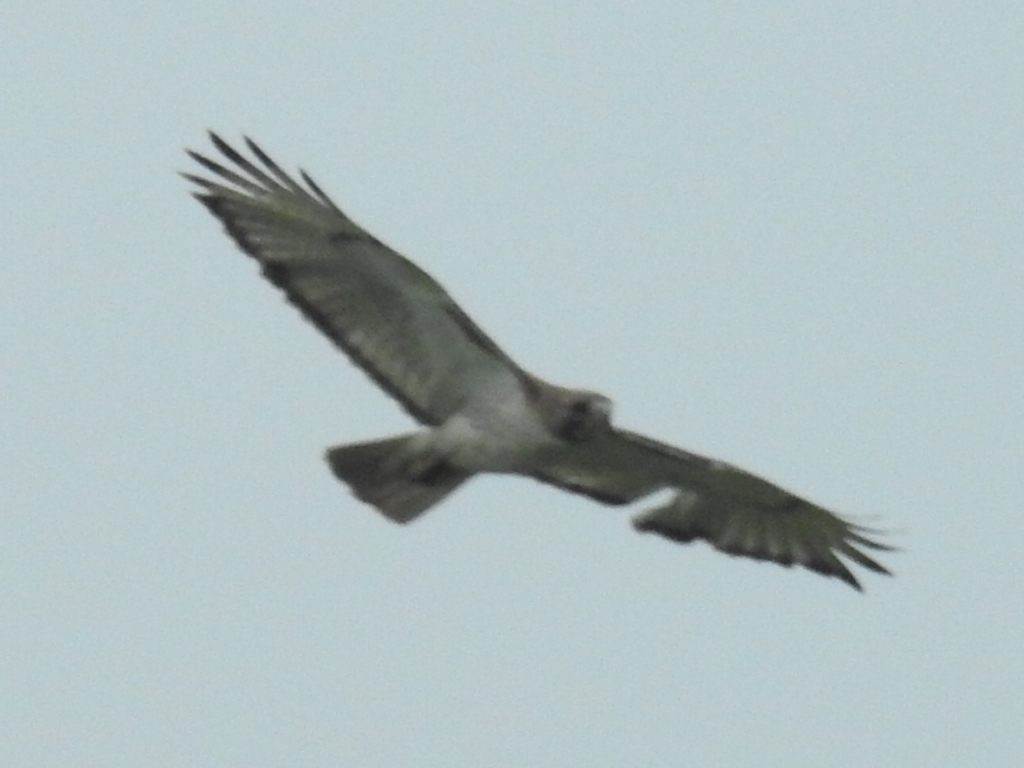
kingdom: Animalia
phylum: Chordata
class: Aves
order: Accipitriformes
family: Accipitridae
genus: Buteo
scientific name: Buteo jamaicensis
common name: Red-tailed hawk
